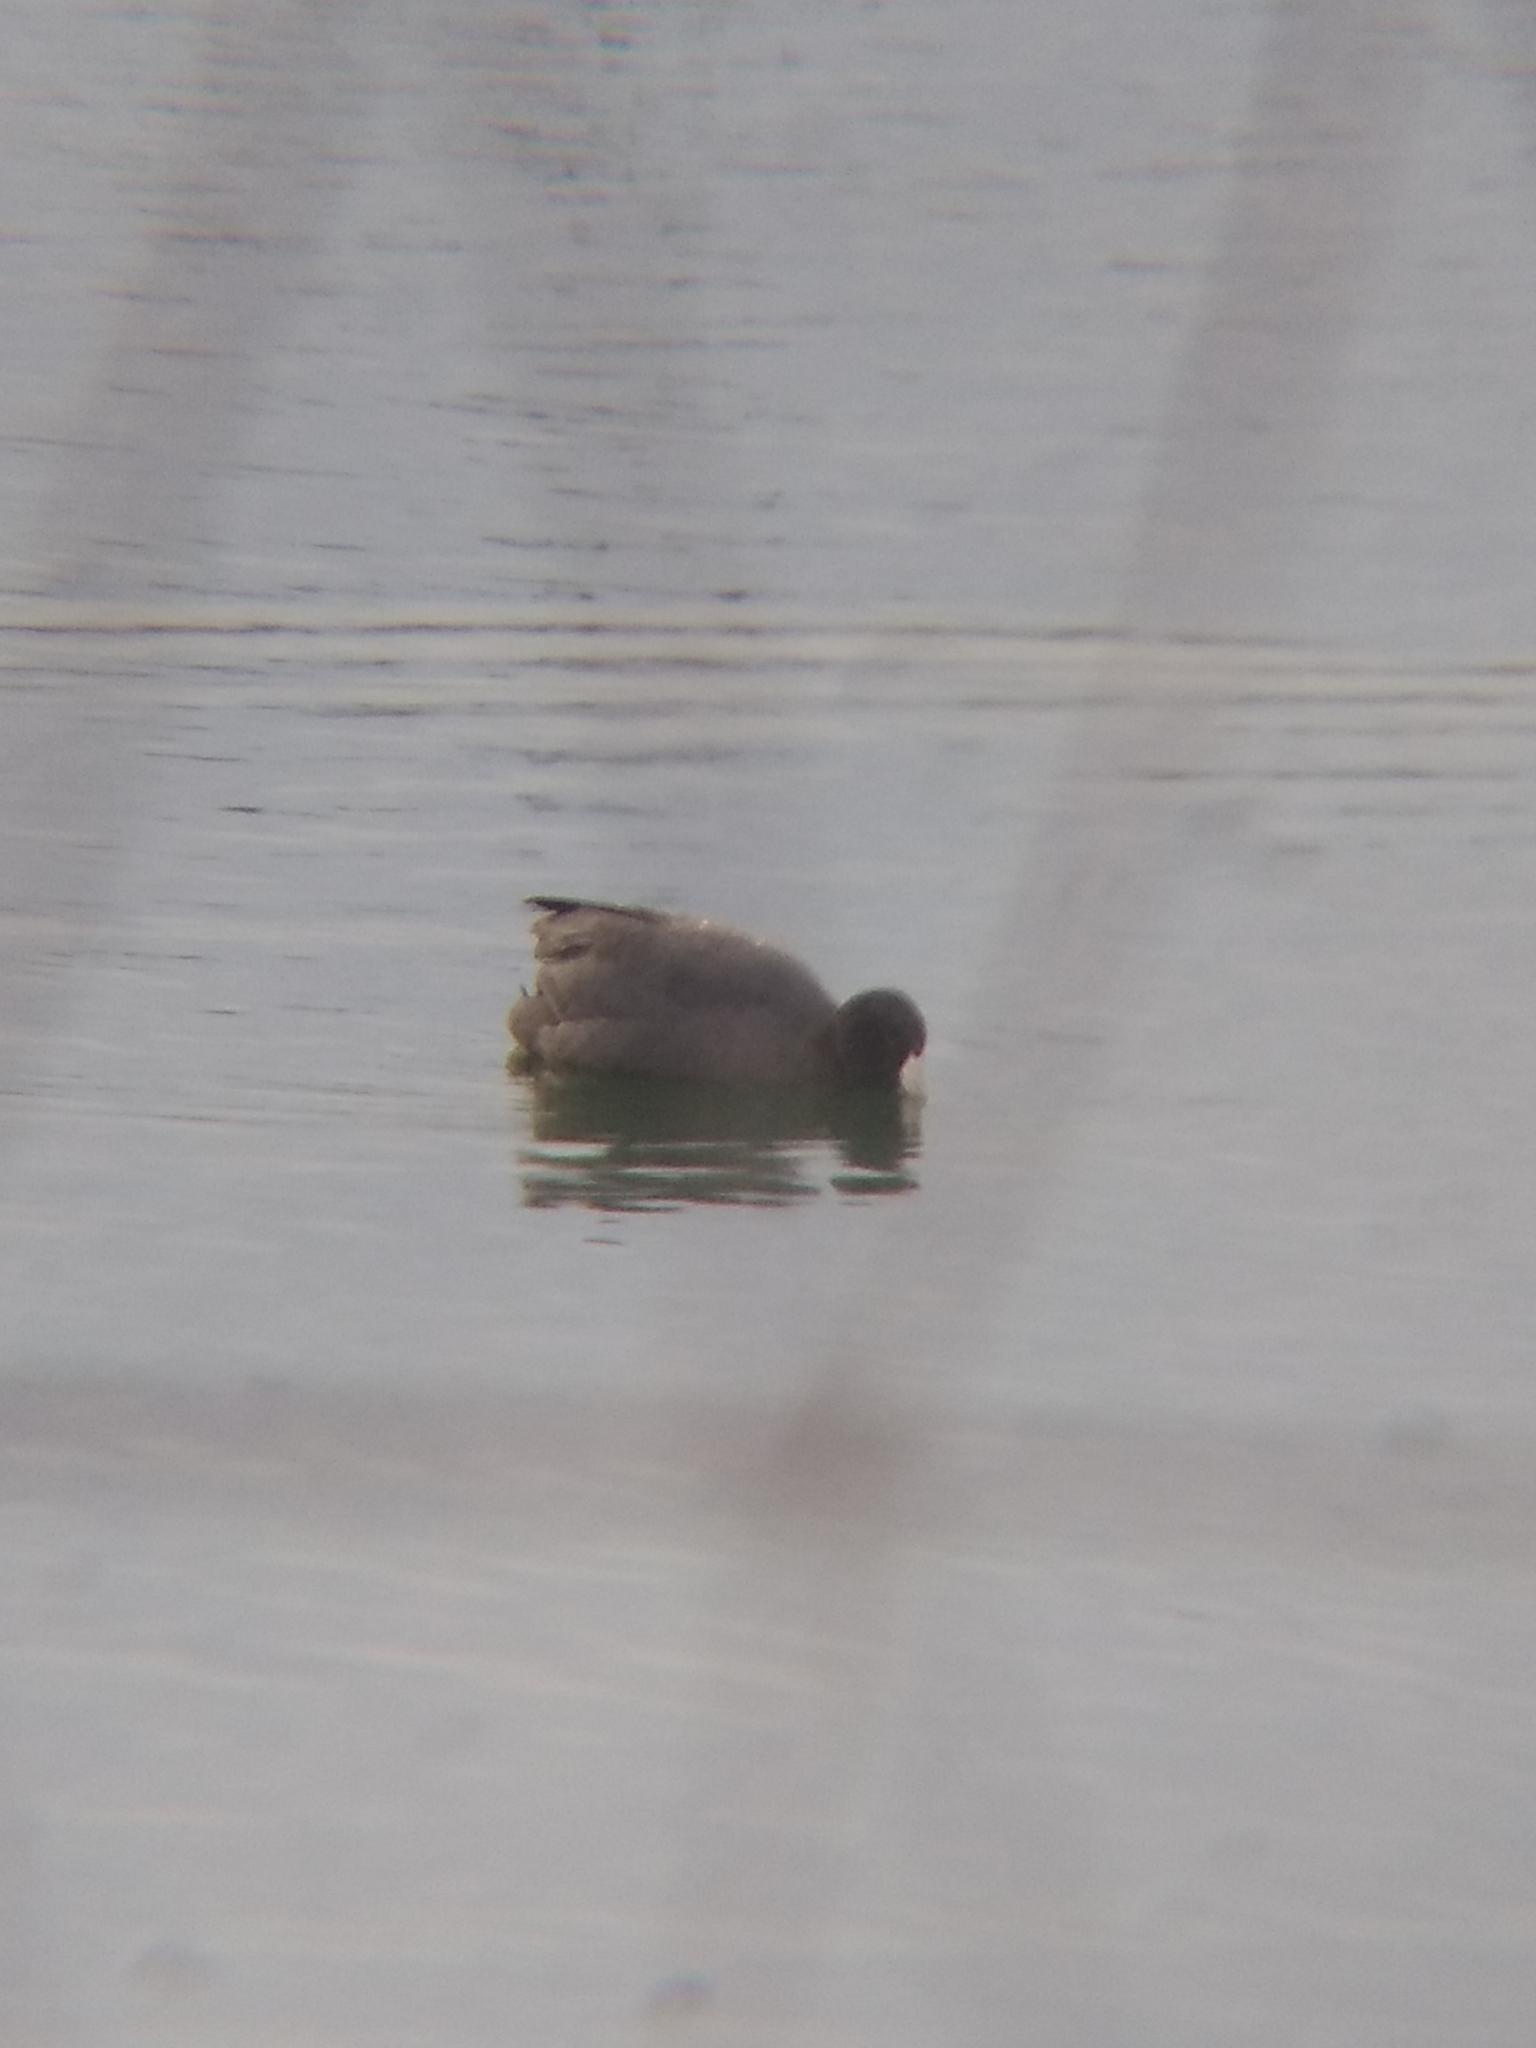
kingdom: Animalia
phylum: Chordata
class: Aves
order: Gruiformes
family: Rallidae
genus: Fulica
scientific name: Fulica americana
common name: American coot
